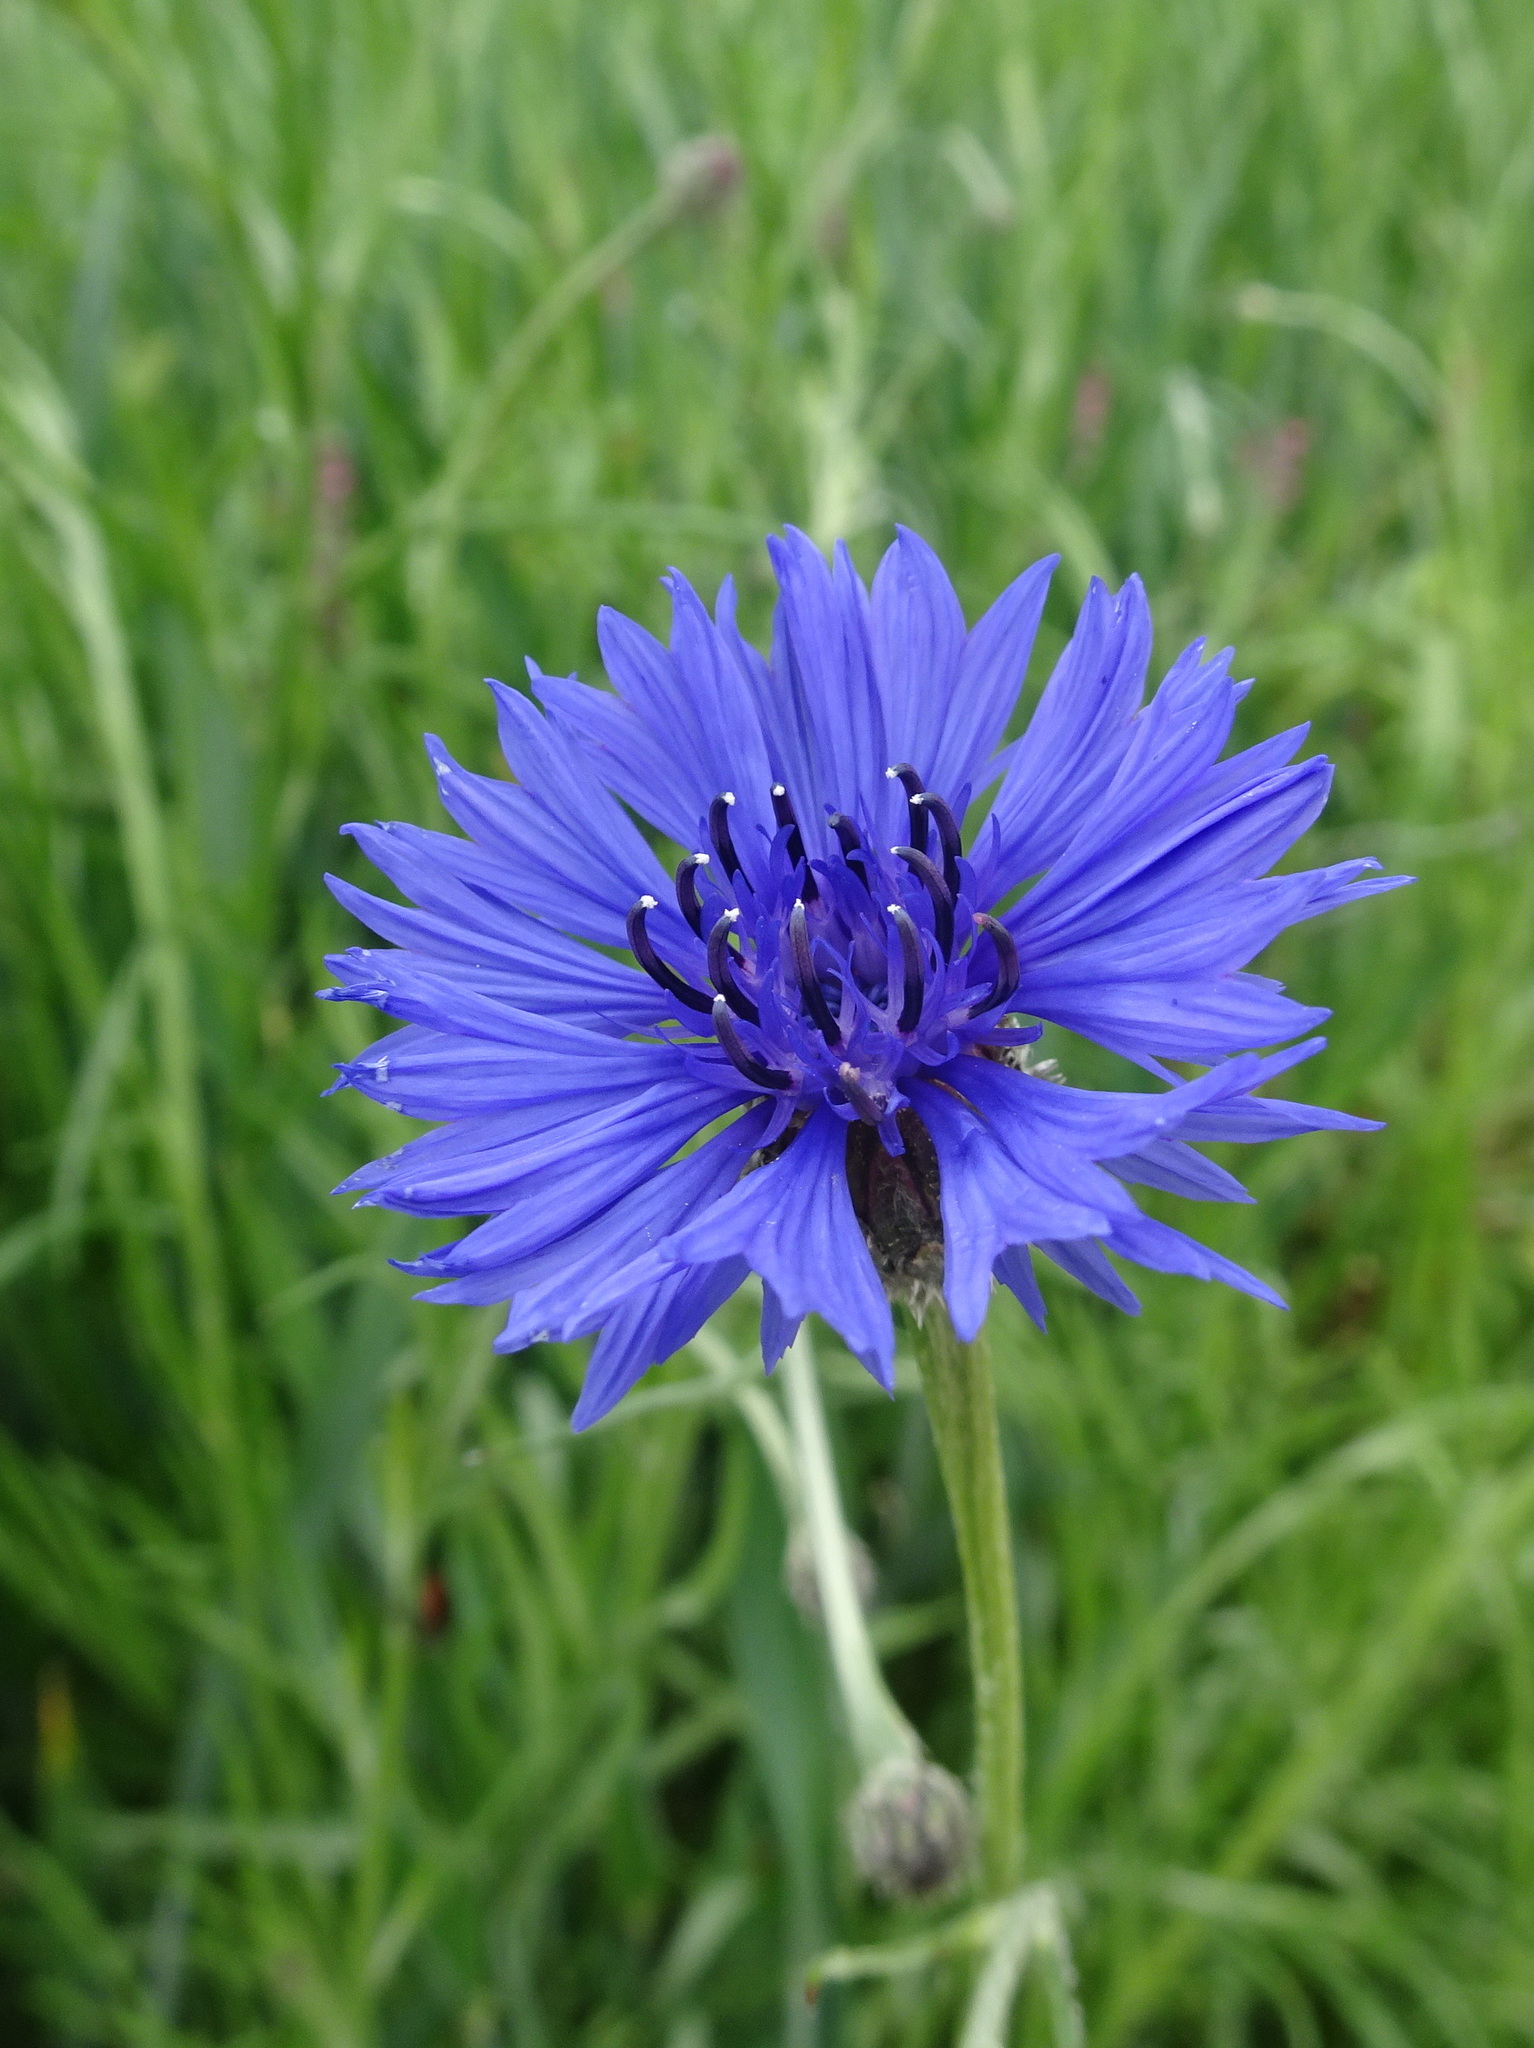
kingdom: Plantae
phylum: Tracheophyta
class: Magnoliopsida
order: Asterales
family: Asteraceae
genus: Centaurea
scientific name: Centaurea cyanus
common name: Cornflower
